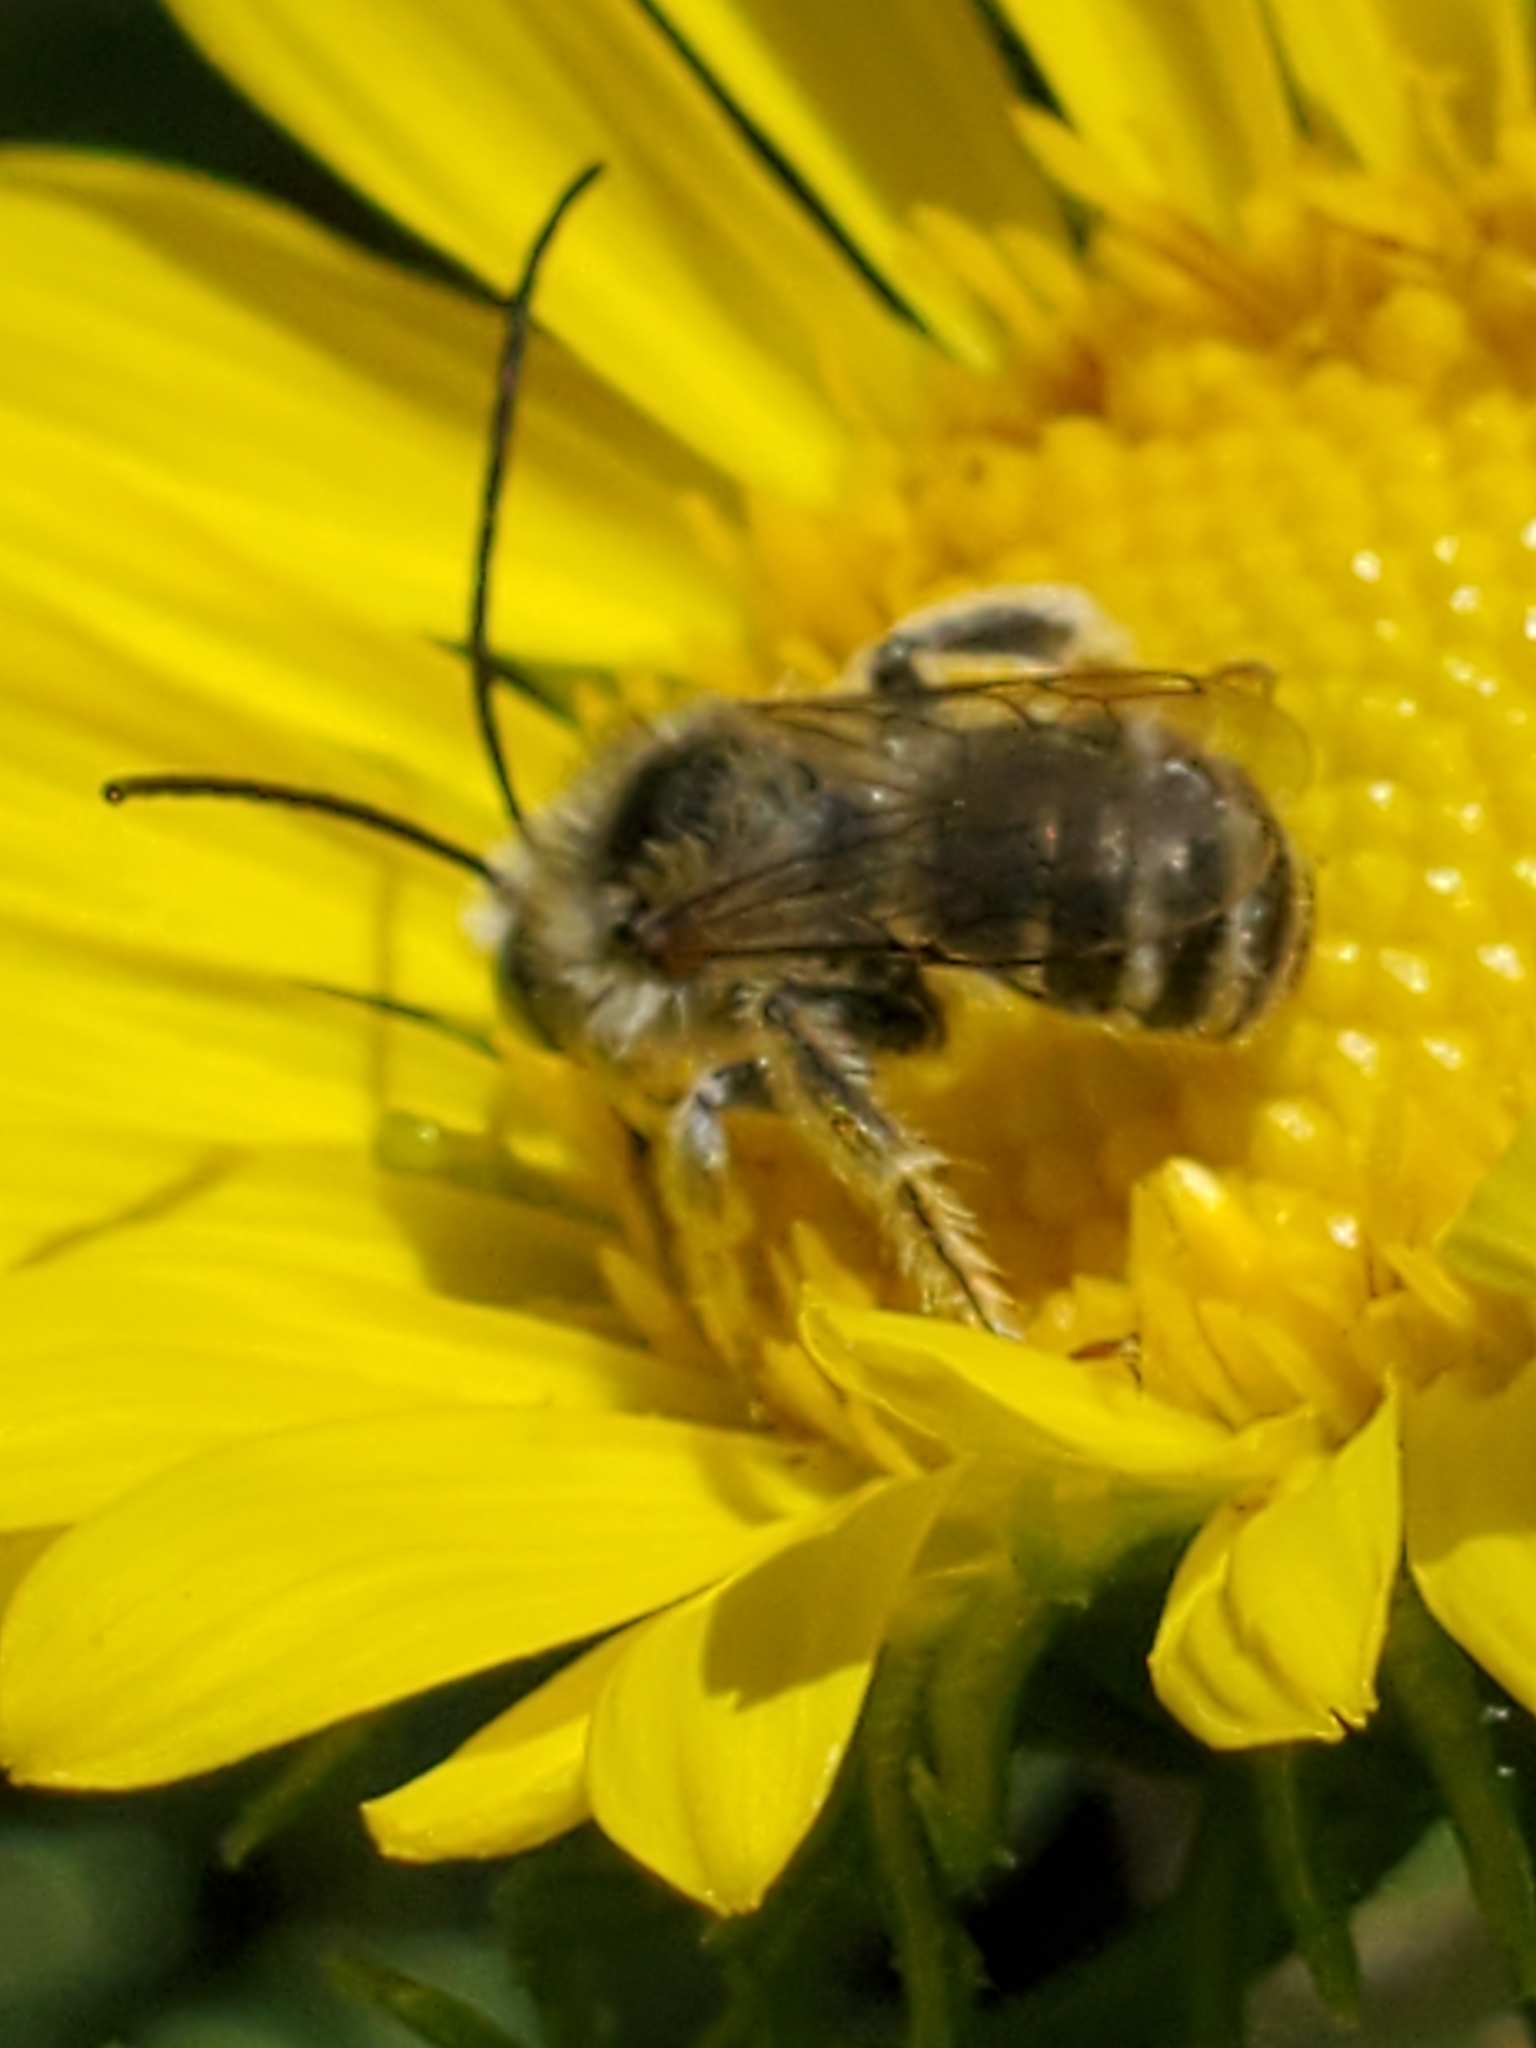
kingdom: Animalia
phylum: Arthropoda
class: Insecta
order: Hymenoptera
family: Apidae
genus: Melissodes
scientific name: Melissodes microstictus
